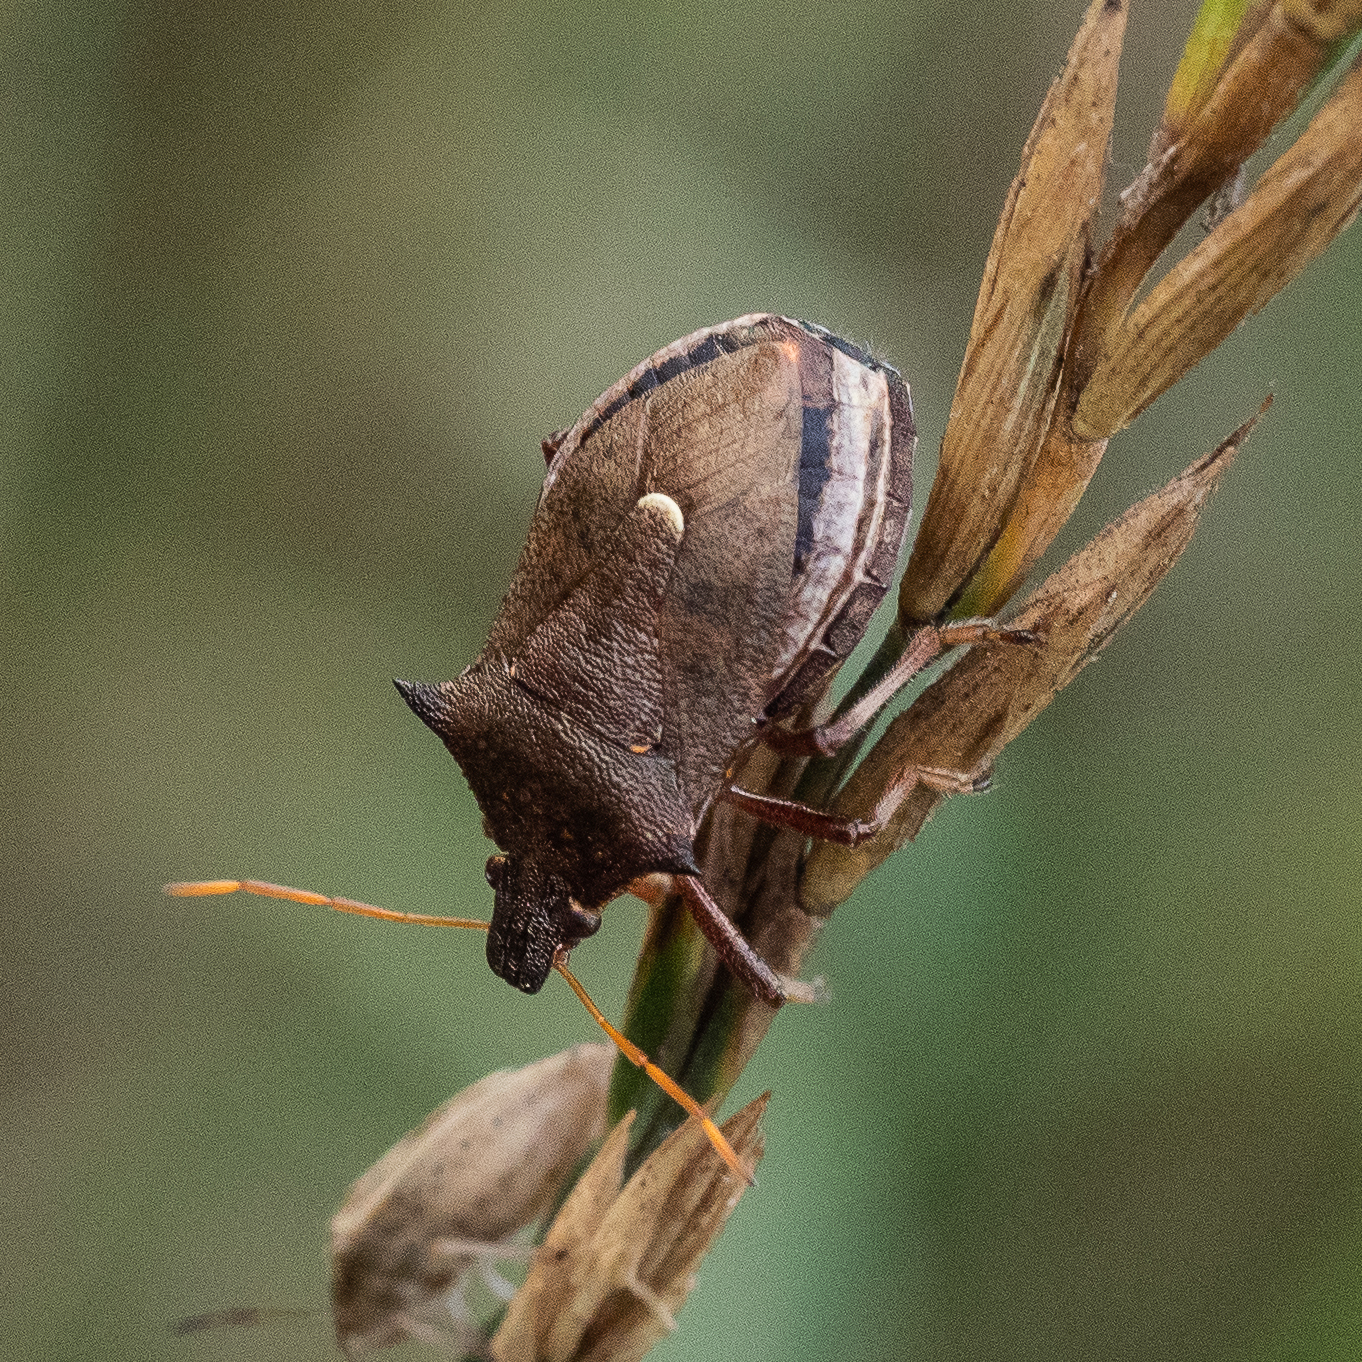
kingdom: Animalia
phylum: Arthropoda
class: Insecta
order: Hemiptera
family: Pentatomidae
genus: Picromerus
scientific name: Picromerus bidens
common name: Spiked shieldbug
